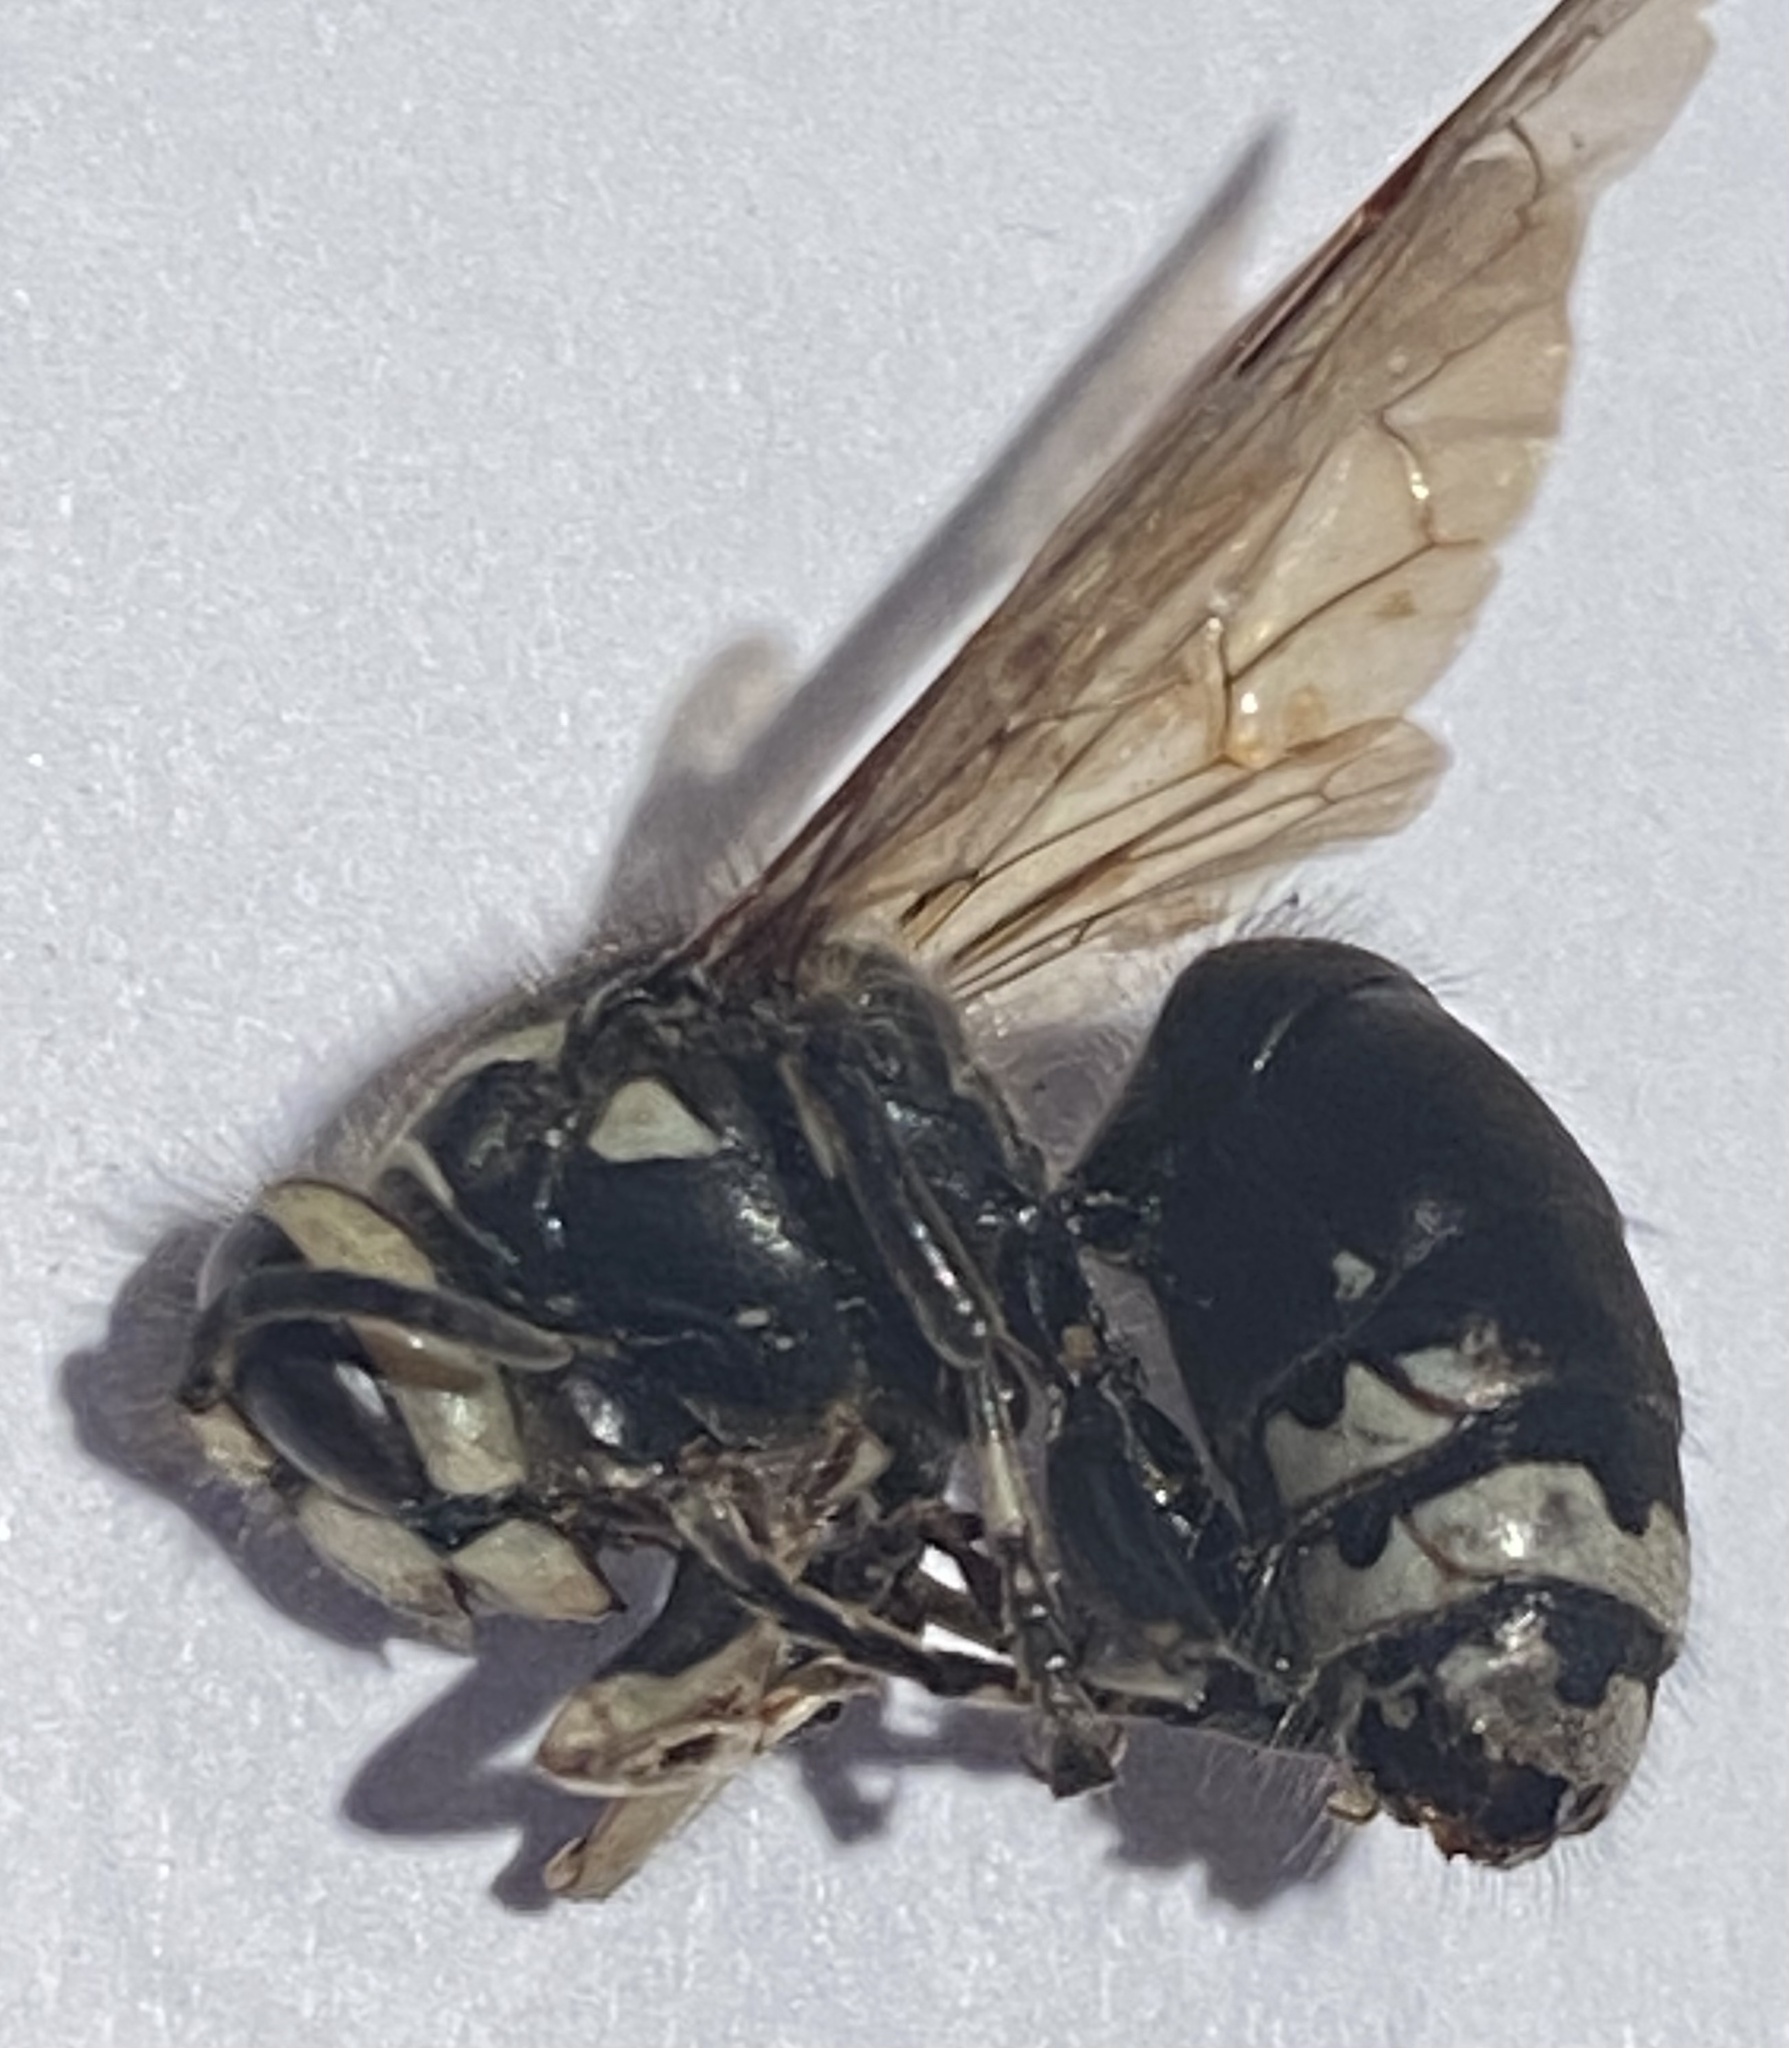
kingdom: Animalia
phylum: Arthropoda
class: Insecta
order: Hymenoptera
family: Vespidae
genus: Dolichovespula
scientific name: Dolichovespula maculata
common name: Bald-faced hornet
